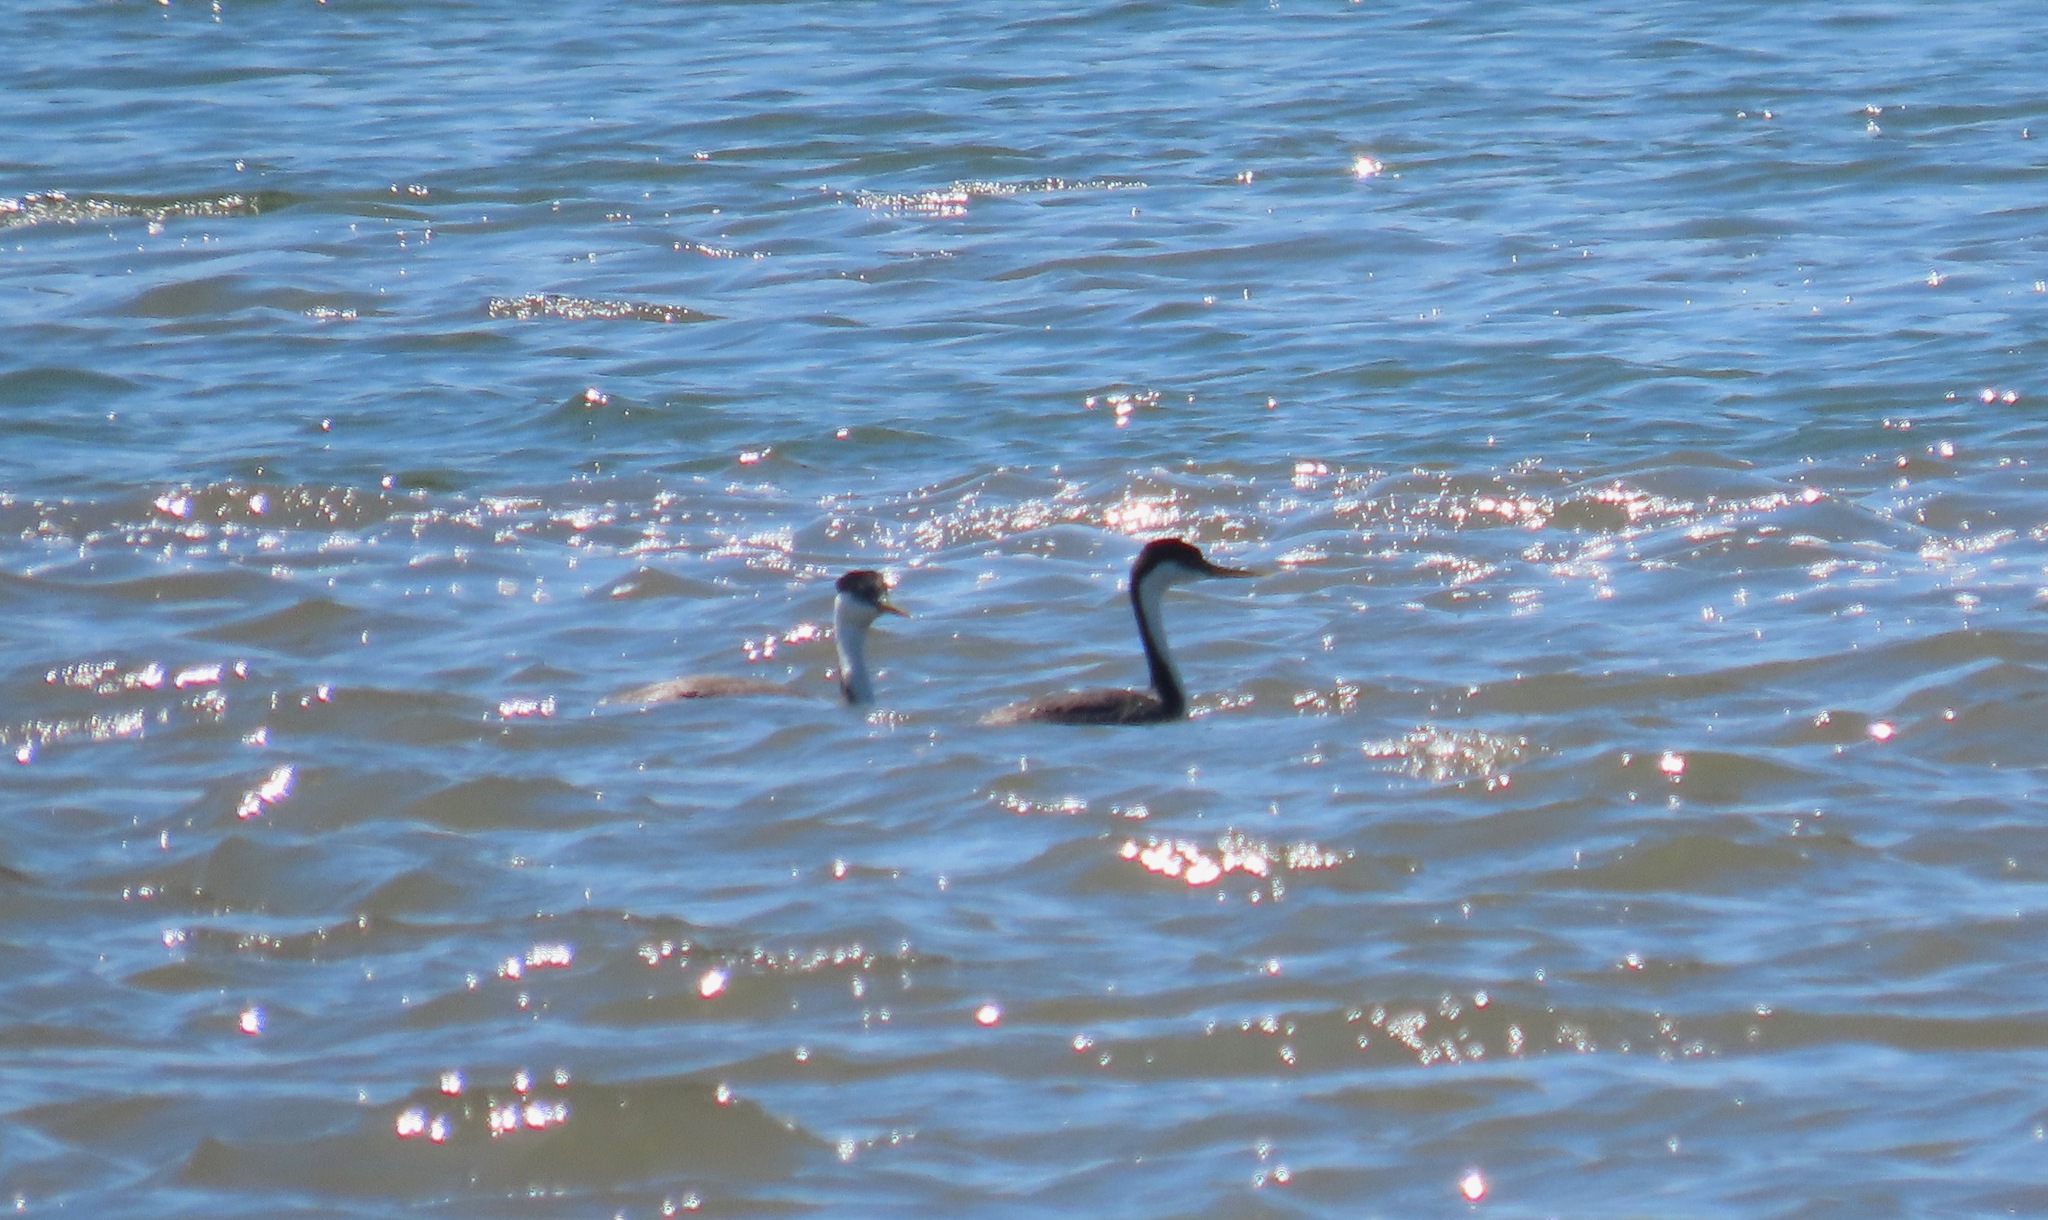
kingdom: Animalia
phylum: Chordata
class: Aves
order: Podicipediformes
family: Podicipedidae
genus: Aechmophorus
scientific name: Aechmophorus occidentalis
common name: Western grebe
